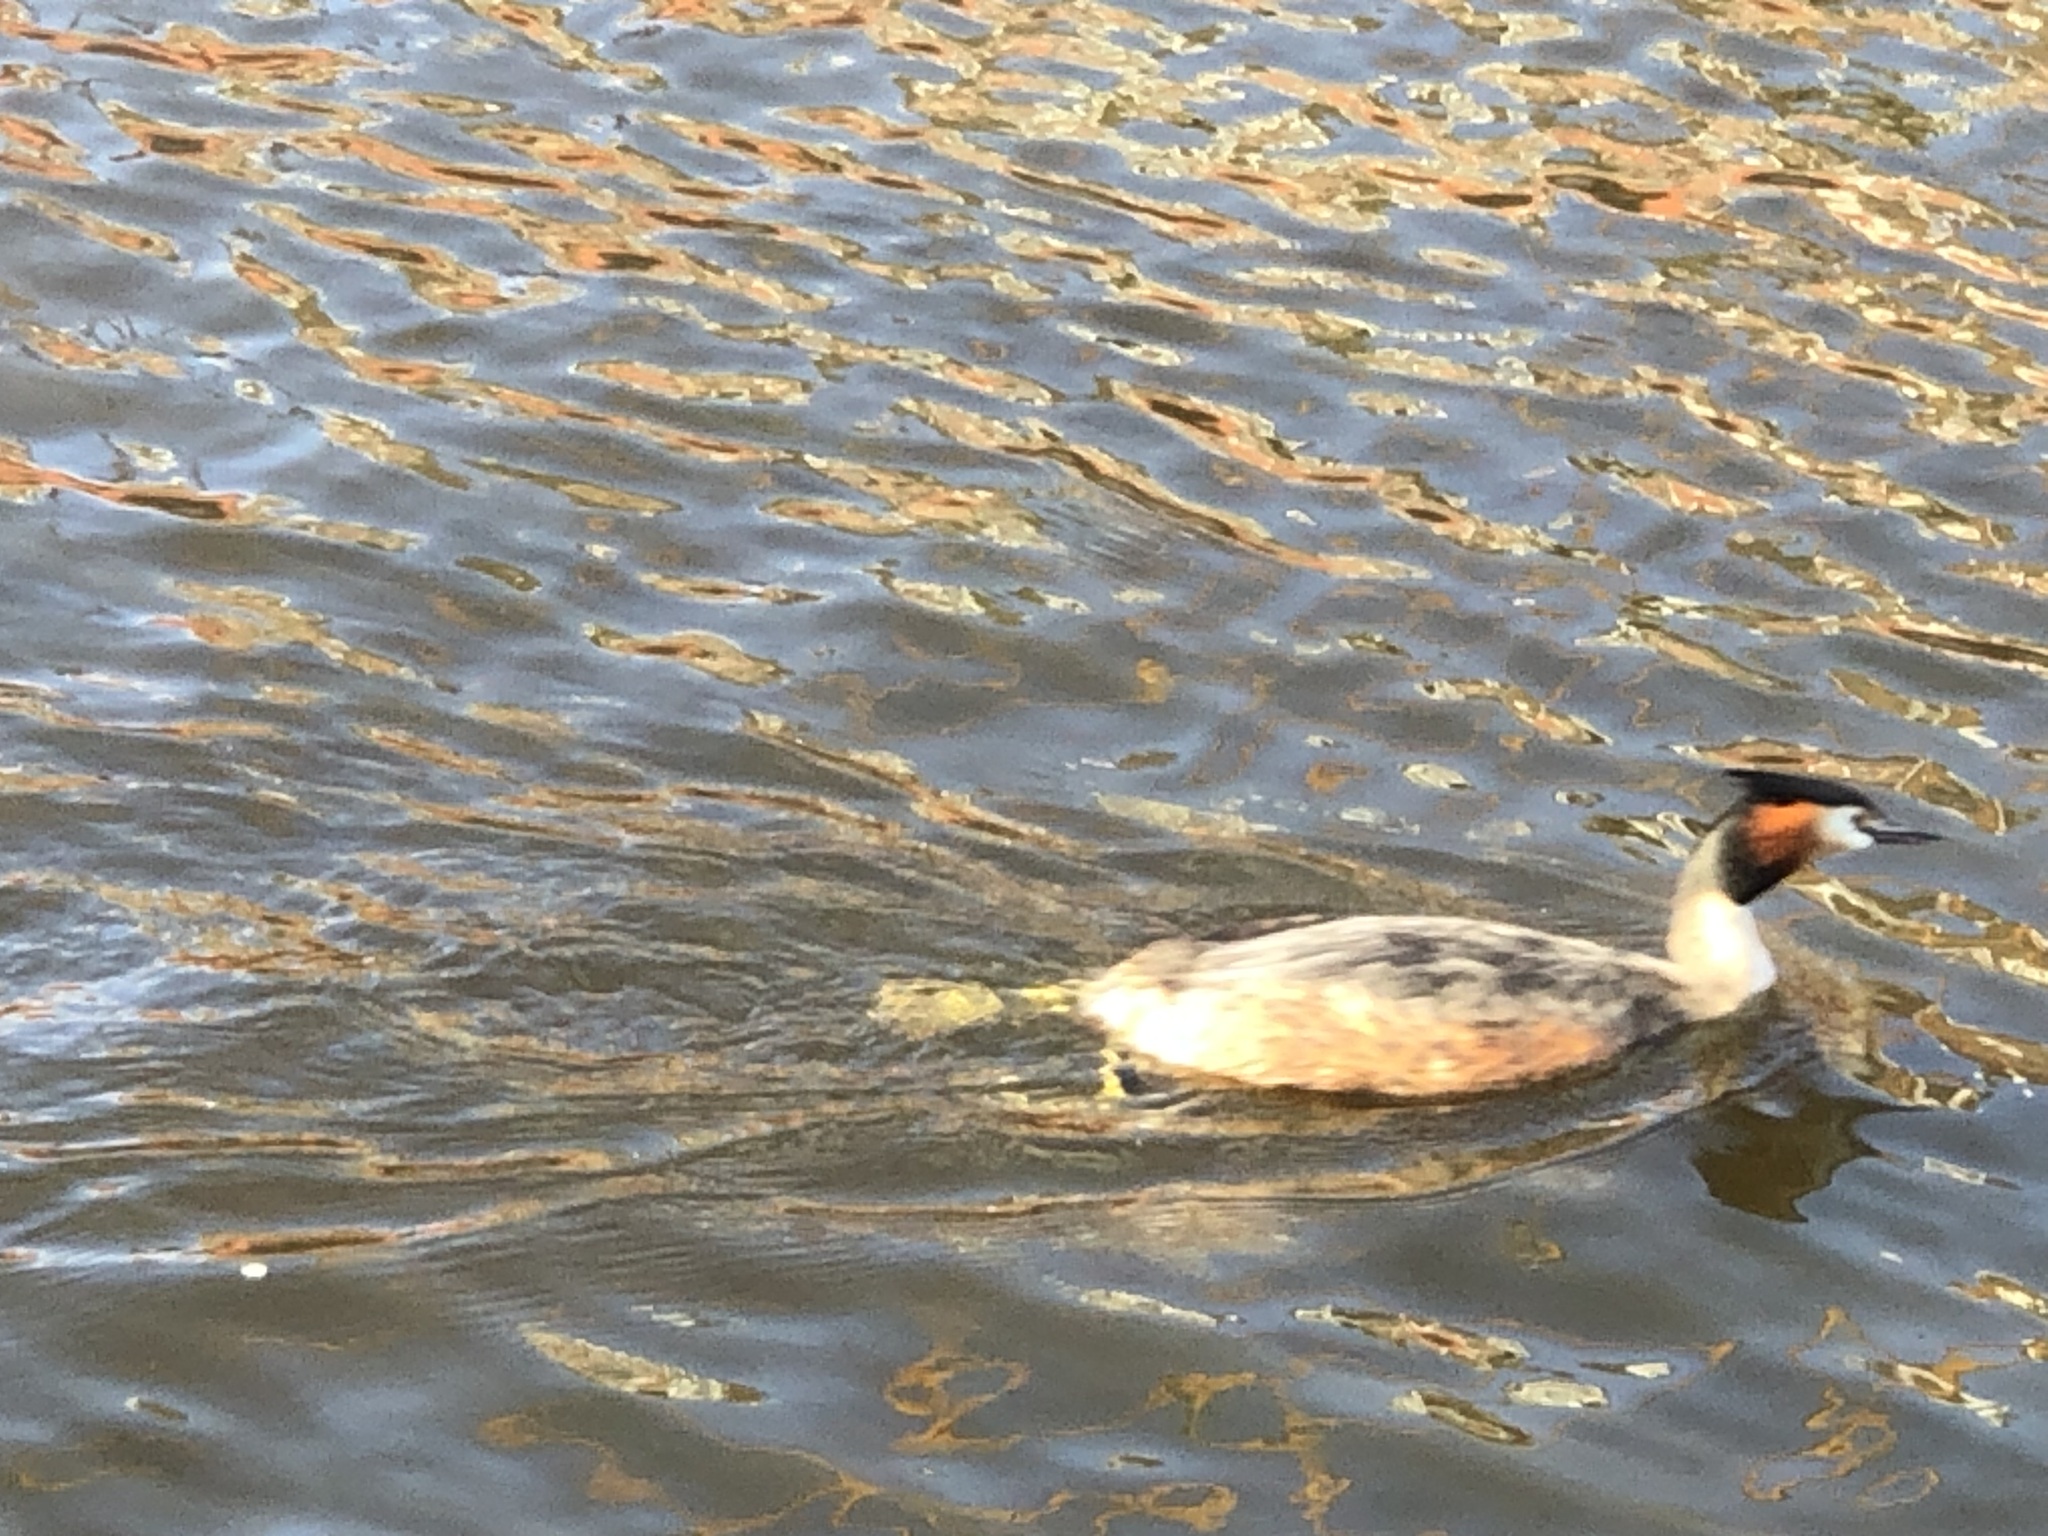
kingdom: Animalia
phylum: Chordata
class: Aves
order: Podicipediformes
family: Podicipedidae
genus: Podiceps
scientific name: Podiceps cristatus
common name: Great crested grebe
